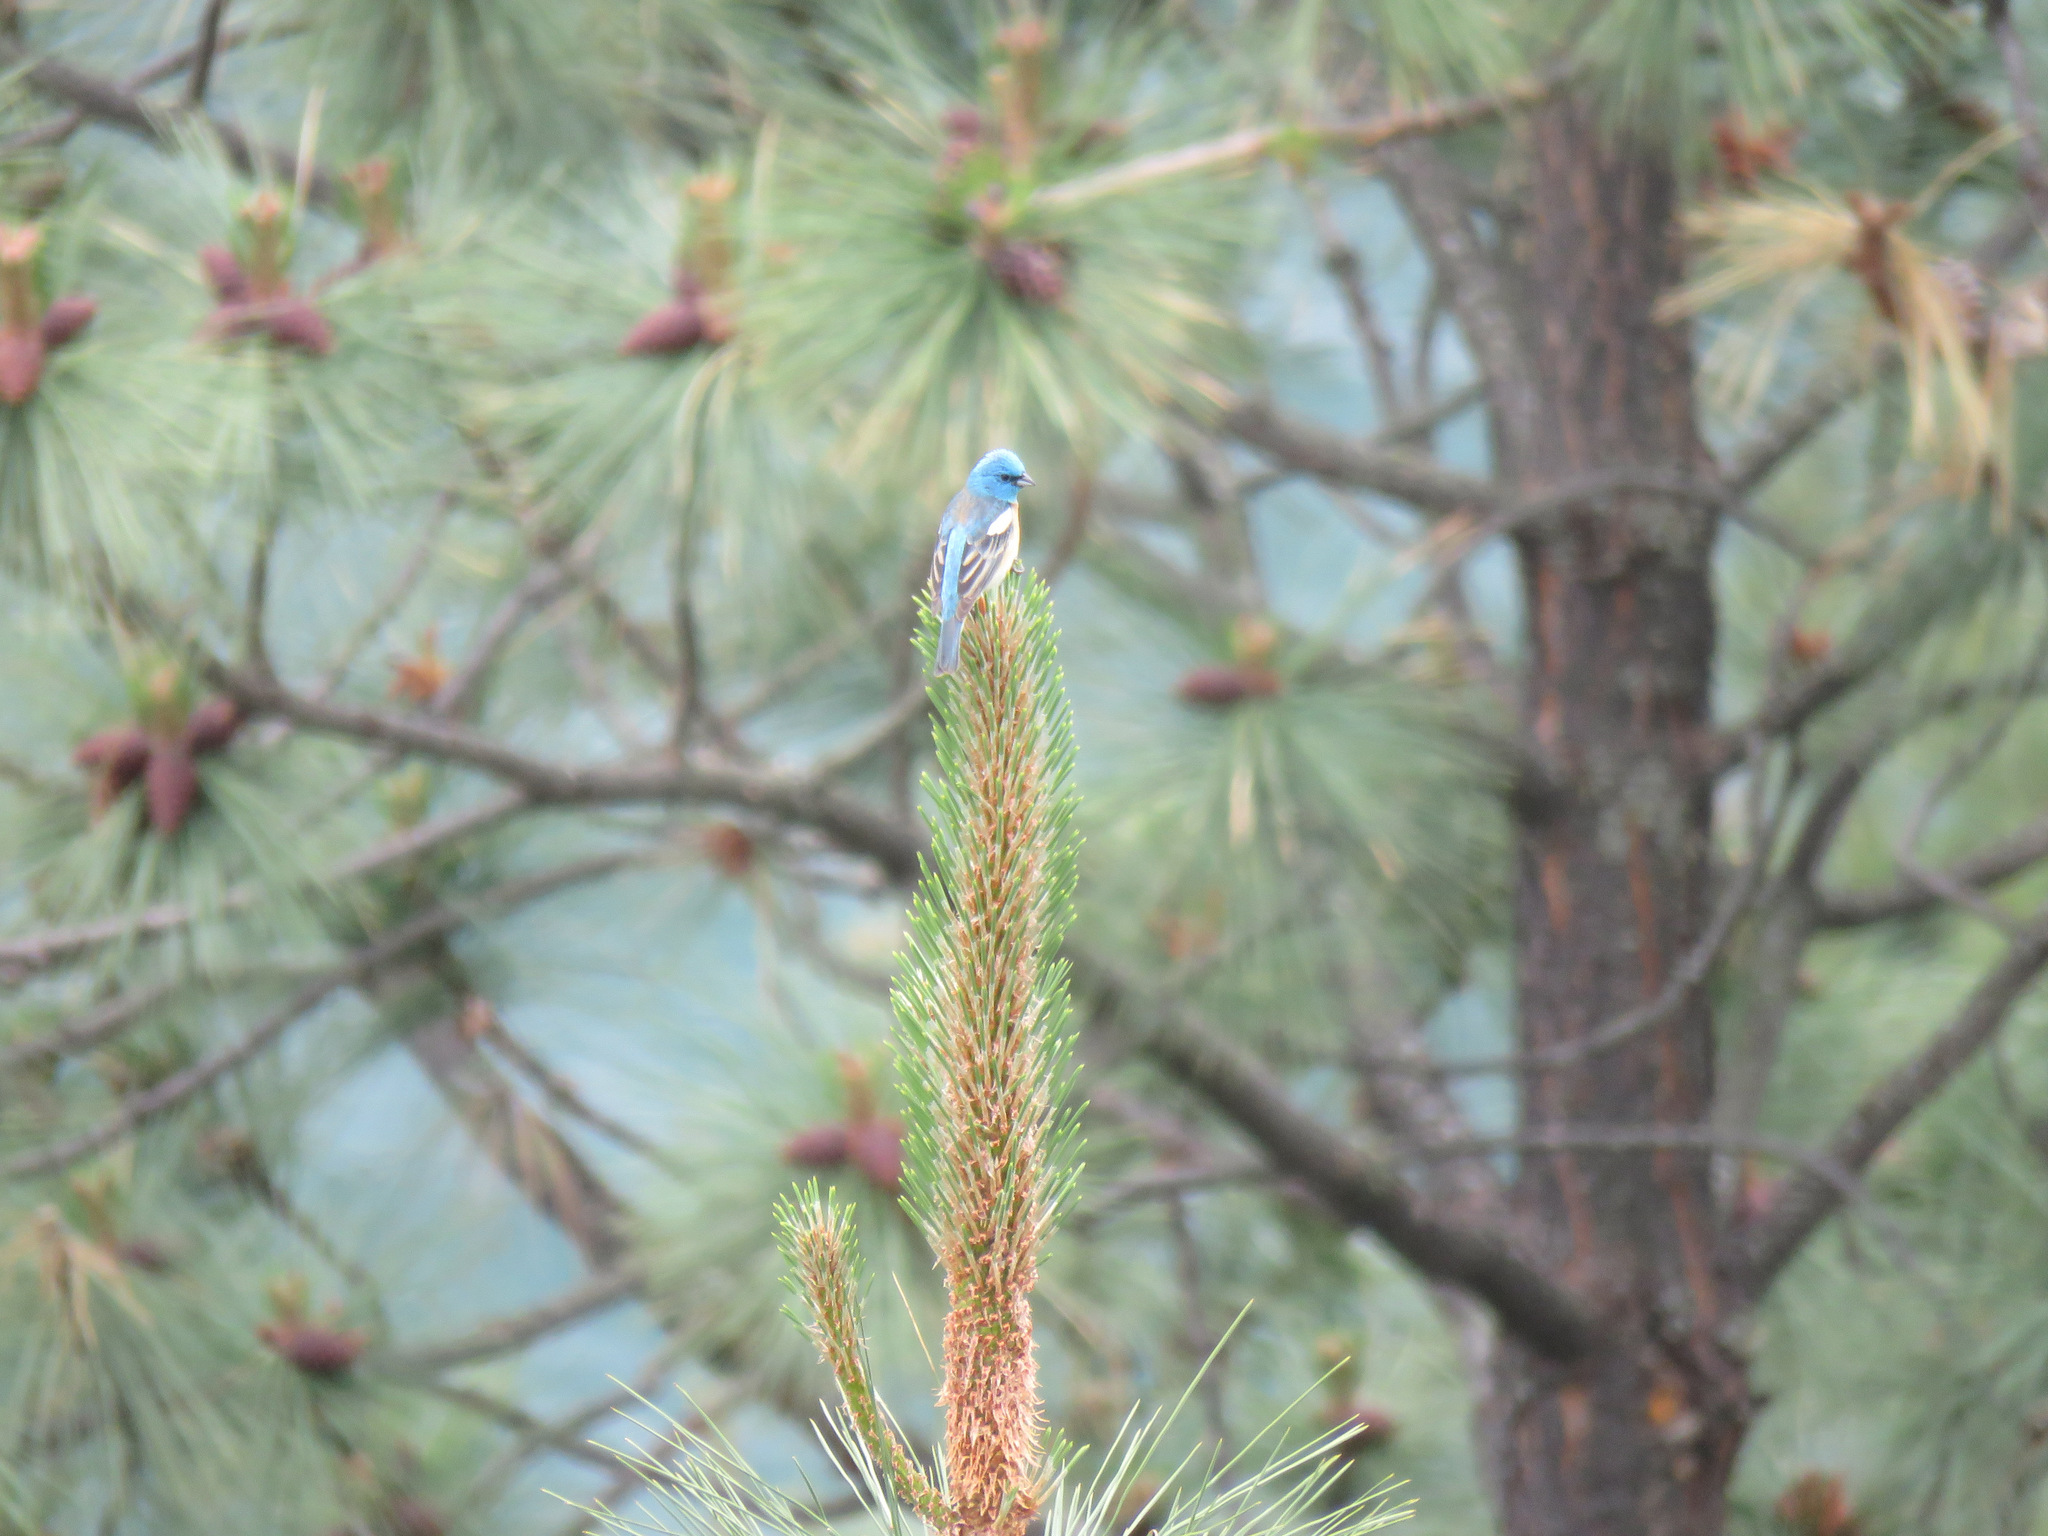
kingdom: Animalia
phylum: Chordata
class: Aves
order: Passeriformes
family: Cardinalidae
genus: Passerina
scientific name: Passerina amoena
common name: Lazuli bunting
